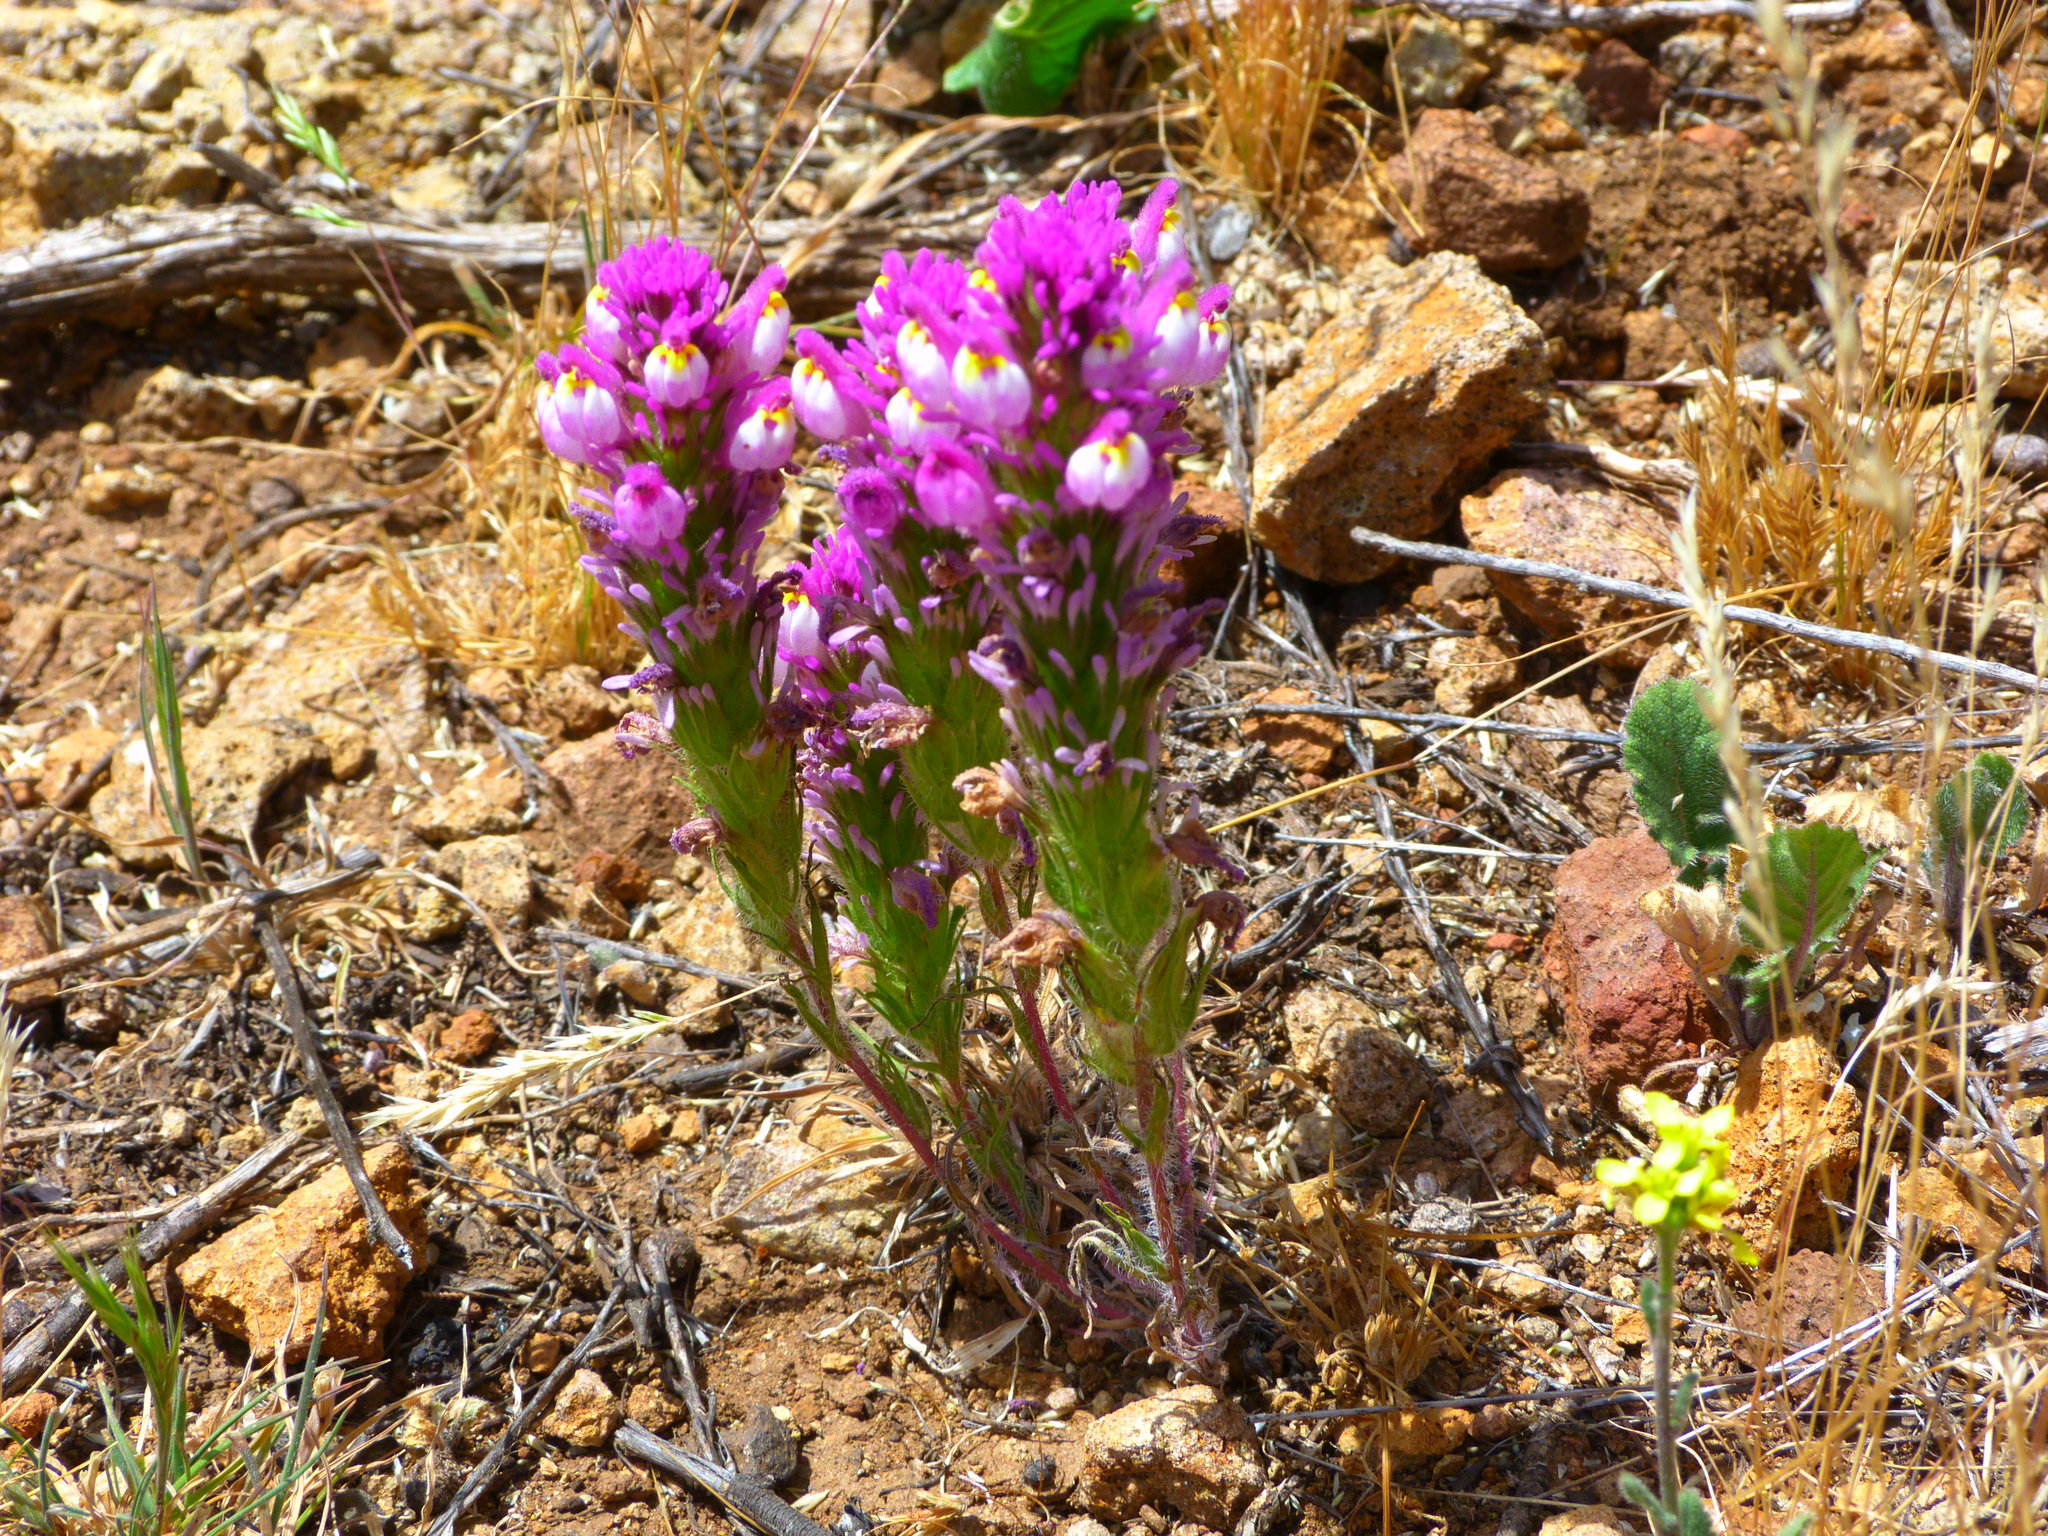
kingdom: Plantae
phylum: Tracheophyta
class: Magnoliopsida
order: Lamiales
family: Orobanchaceae
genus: Castilleja
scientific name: Castilleja exserta
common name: Purple owl-clover
